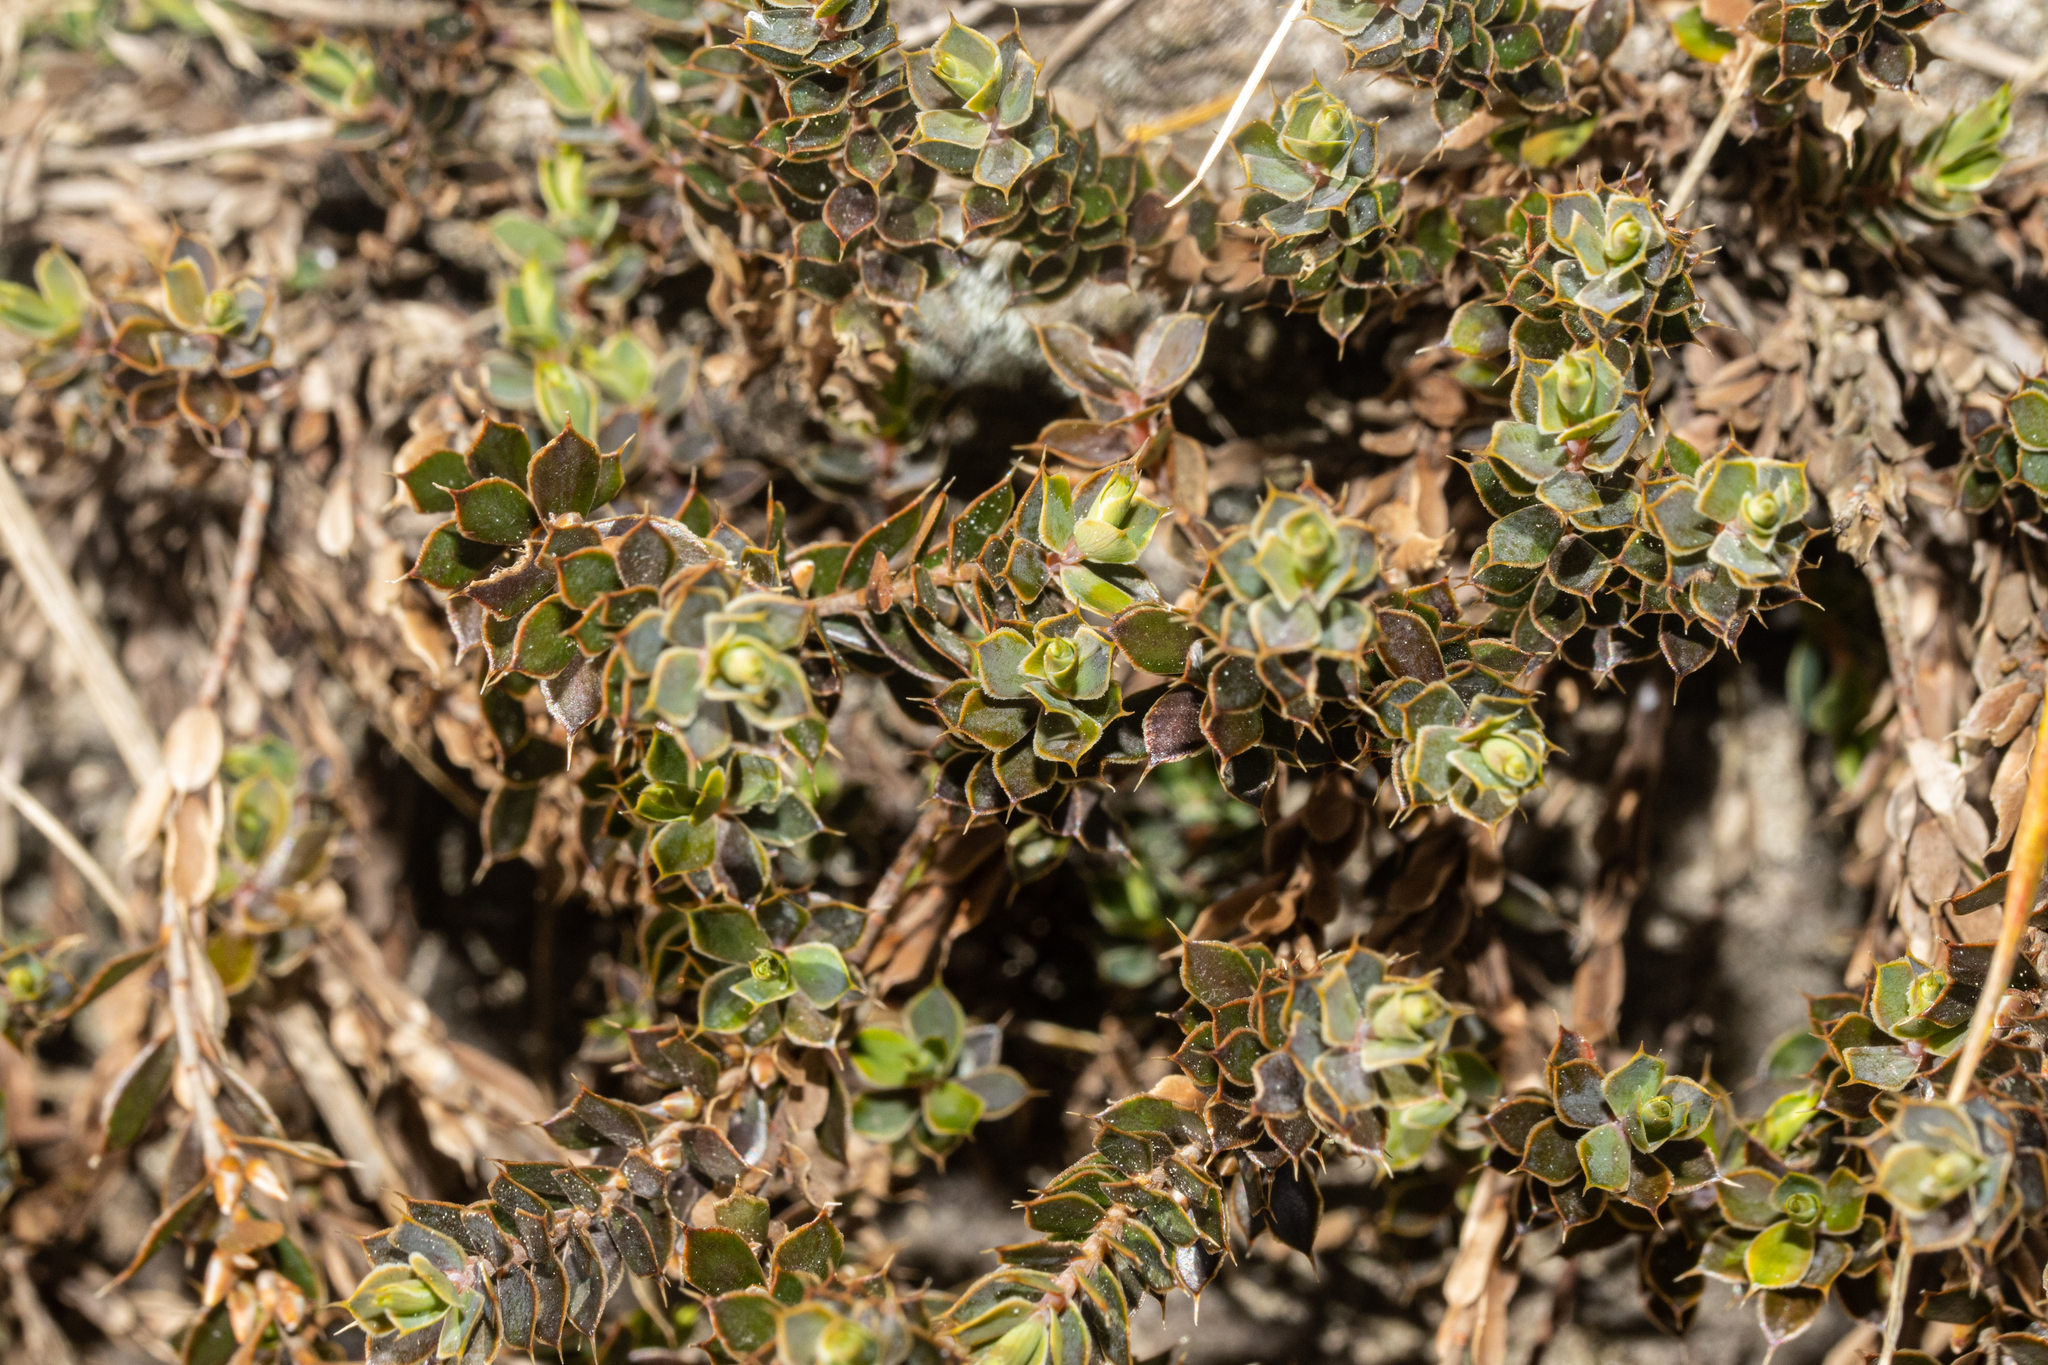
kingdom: Plantae
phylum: Tracheophyta
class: Magnoliopsida
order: Ericales
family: Ericaceae
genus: Styphelia
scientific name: Styphelia nesophila
